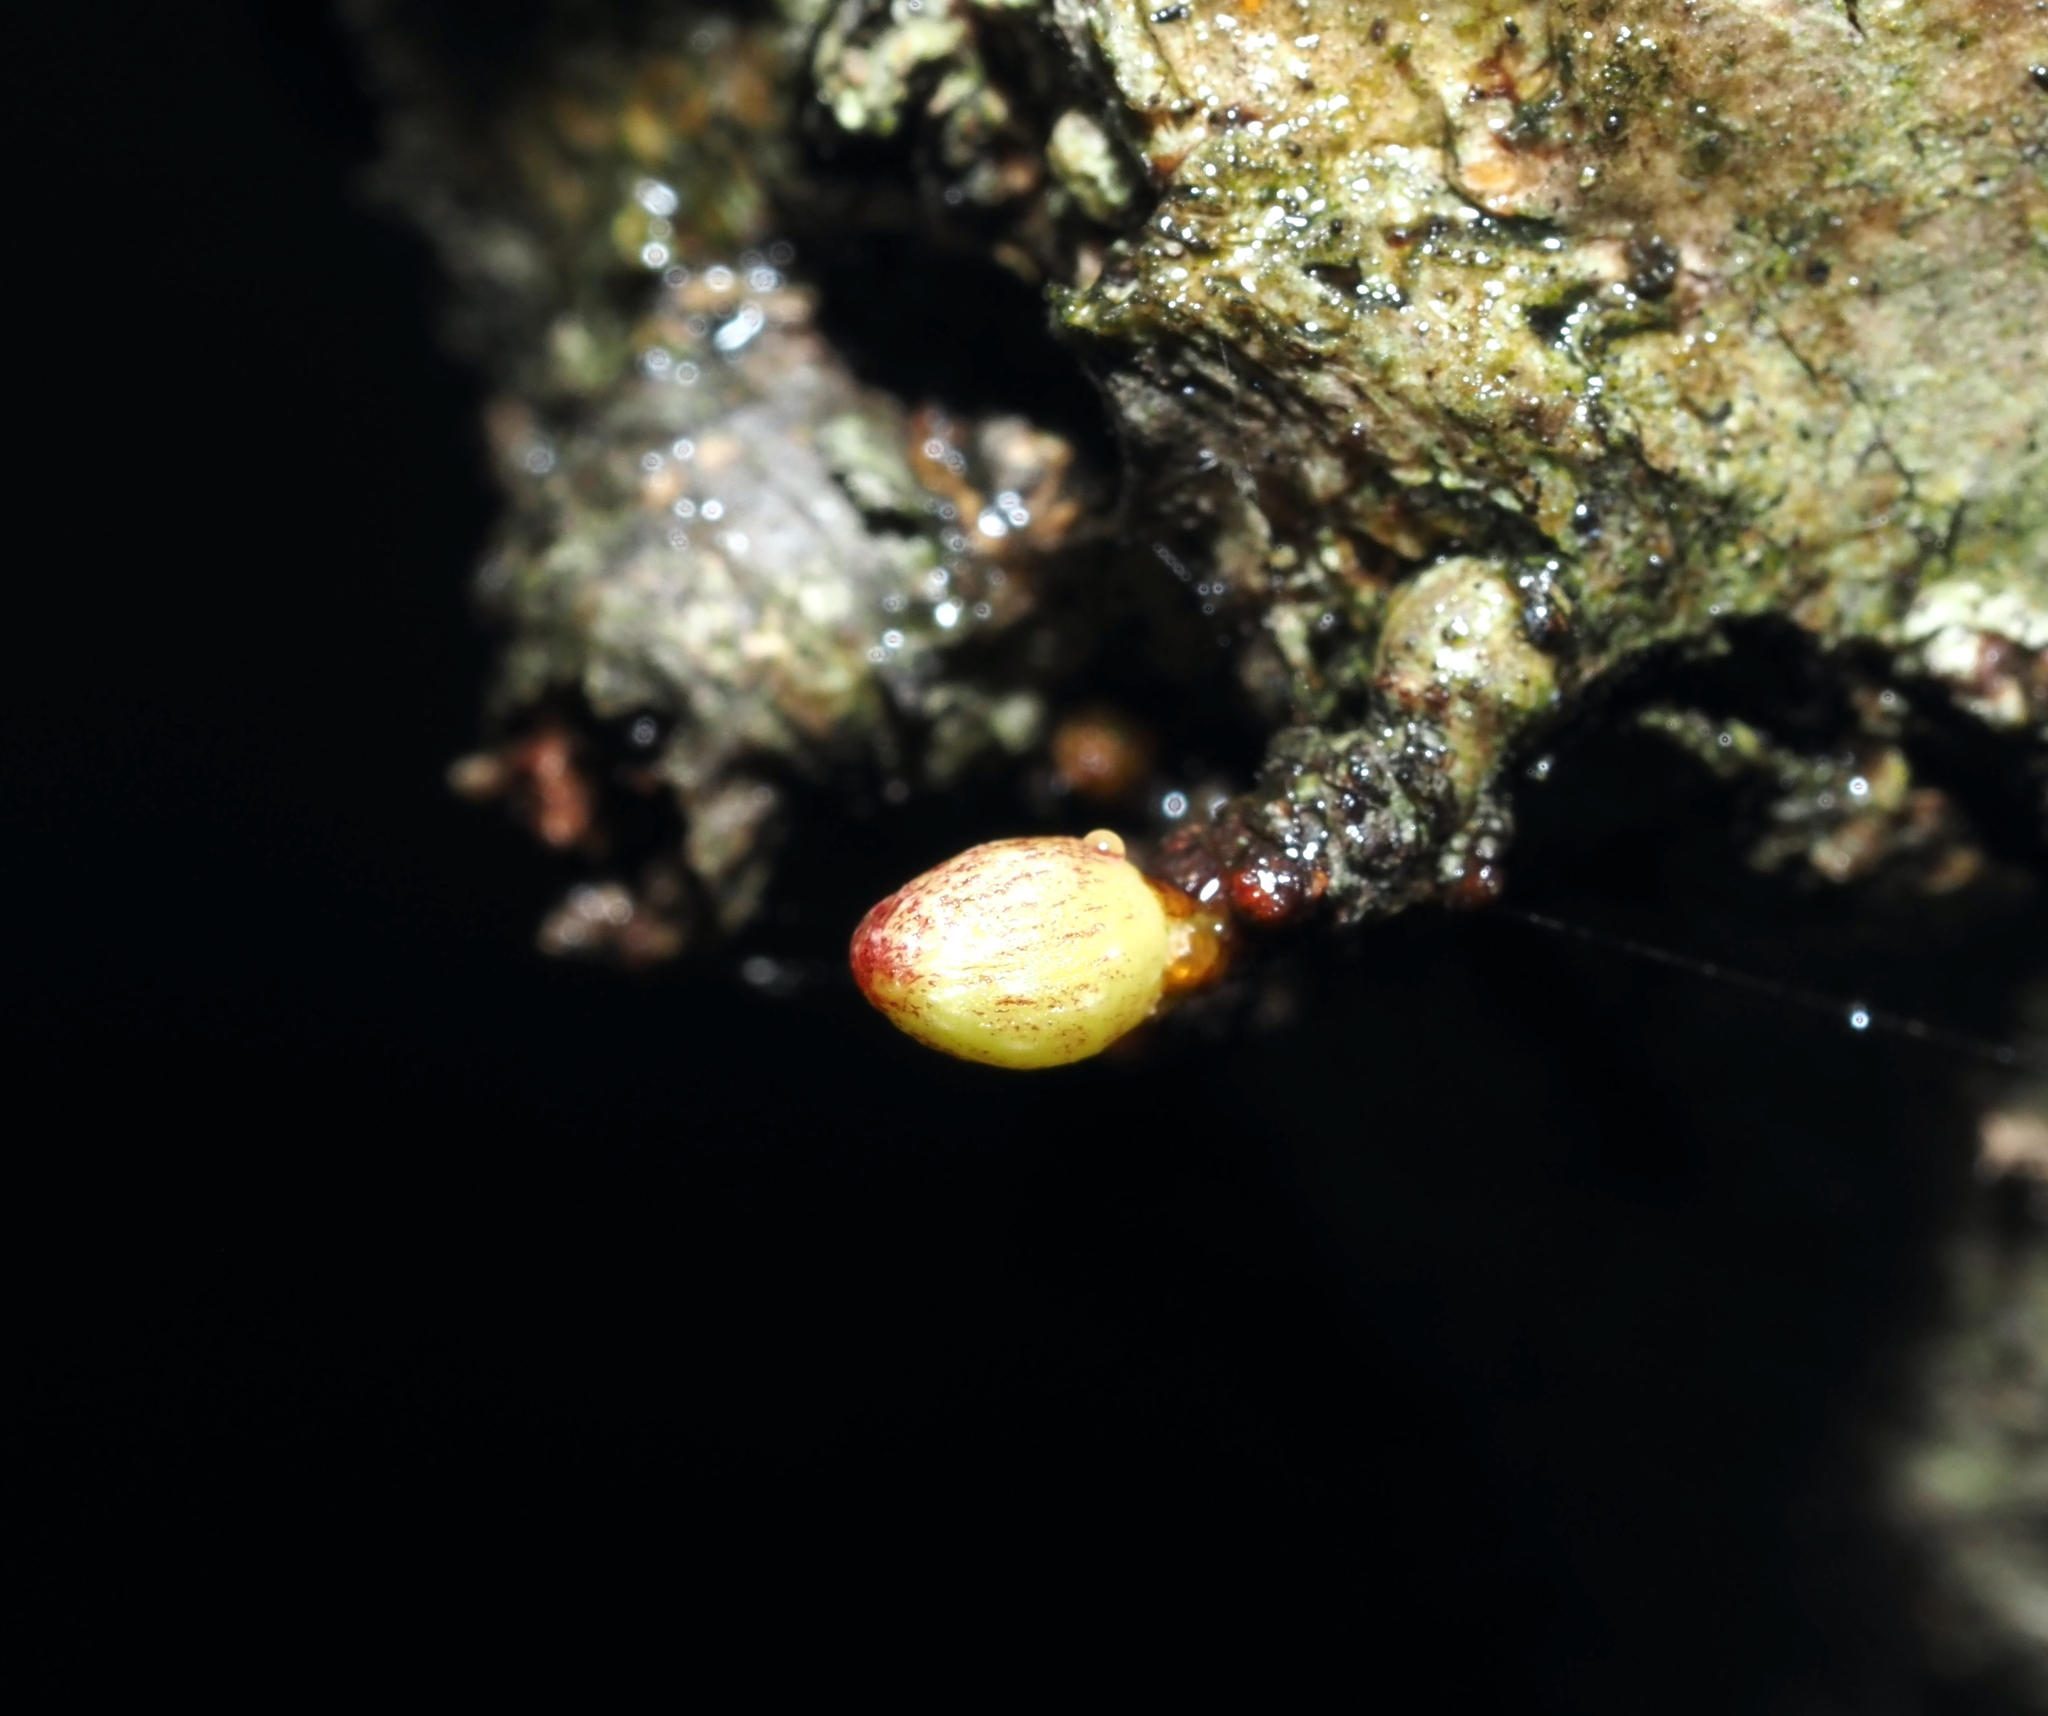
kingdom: Animalia
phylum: Arthropoda
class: Insecta
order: Hymenoptera
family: Cynipidae
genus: Andricus
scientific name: Andricus
